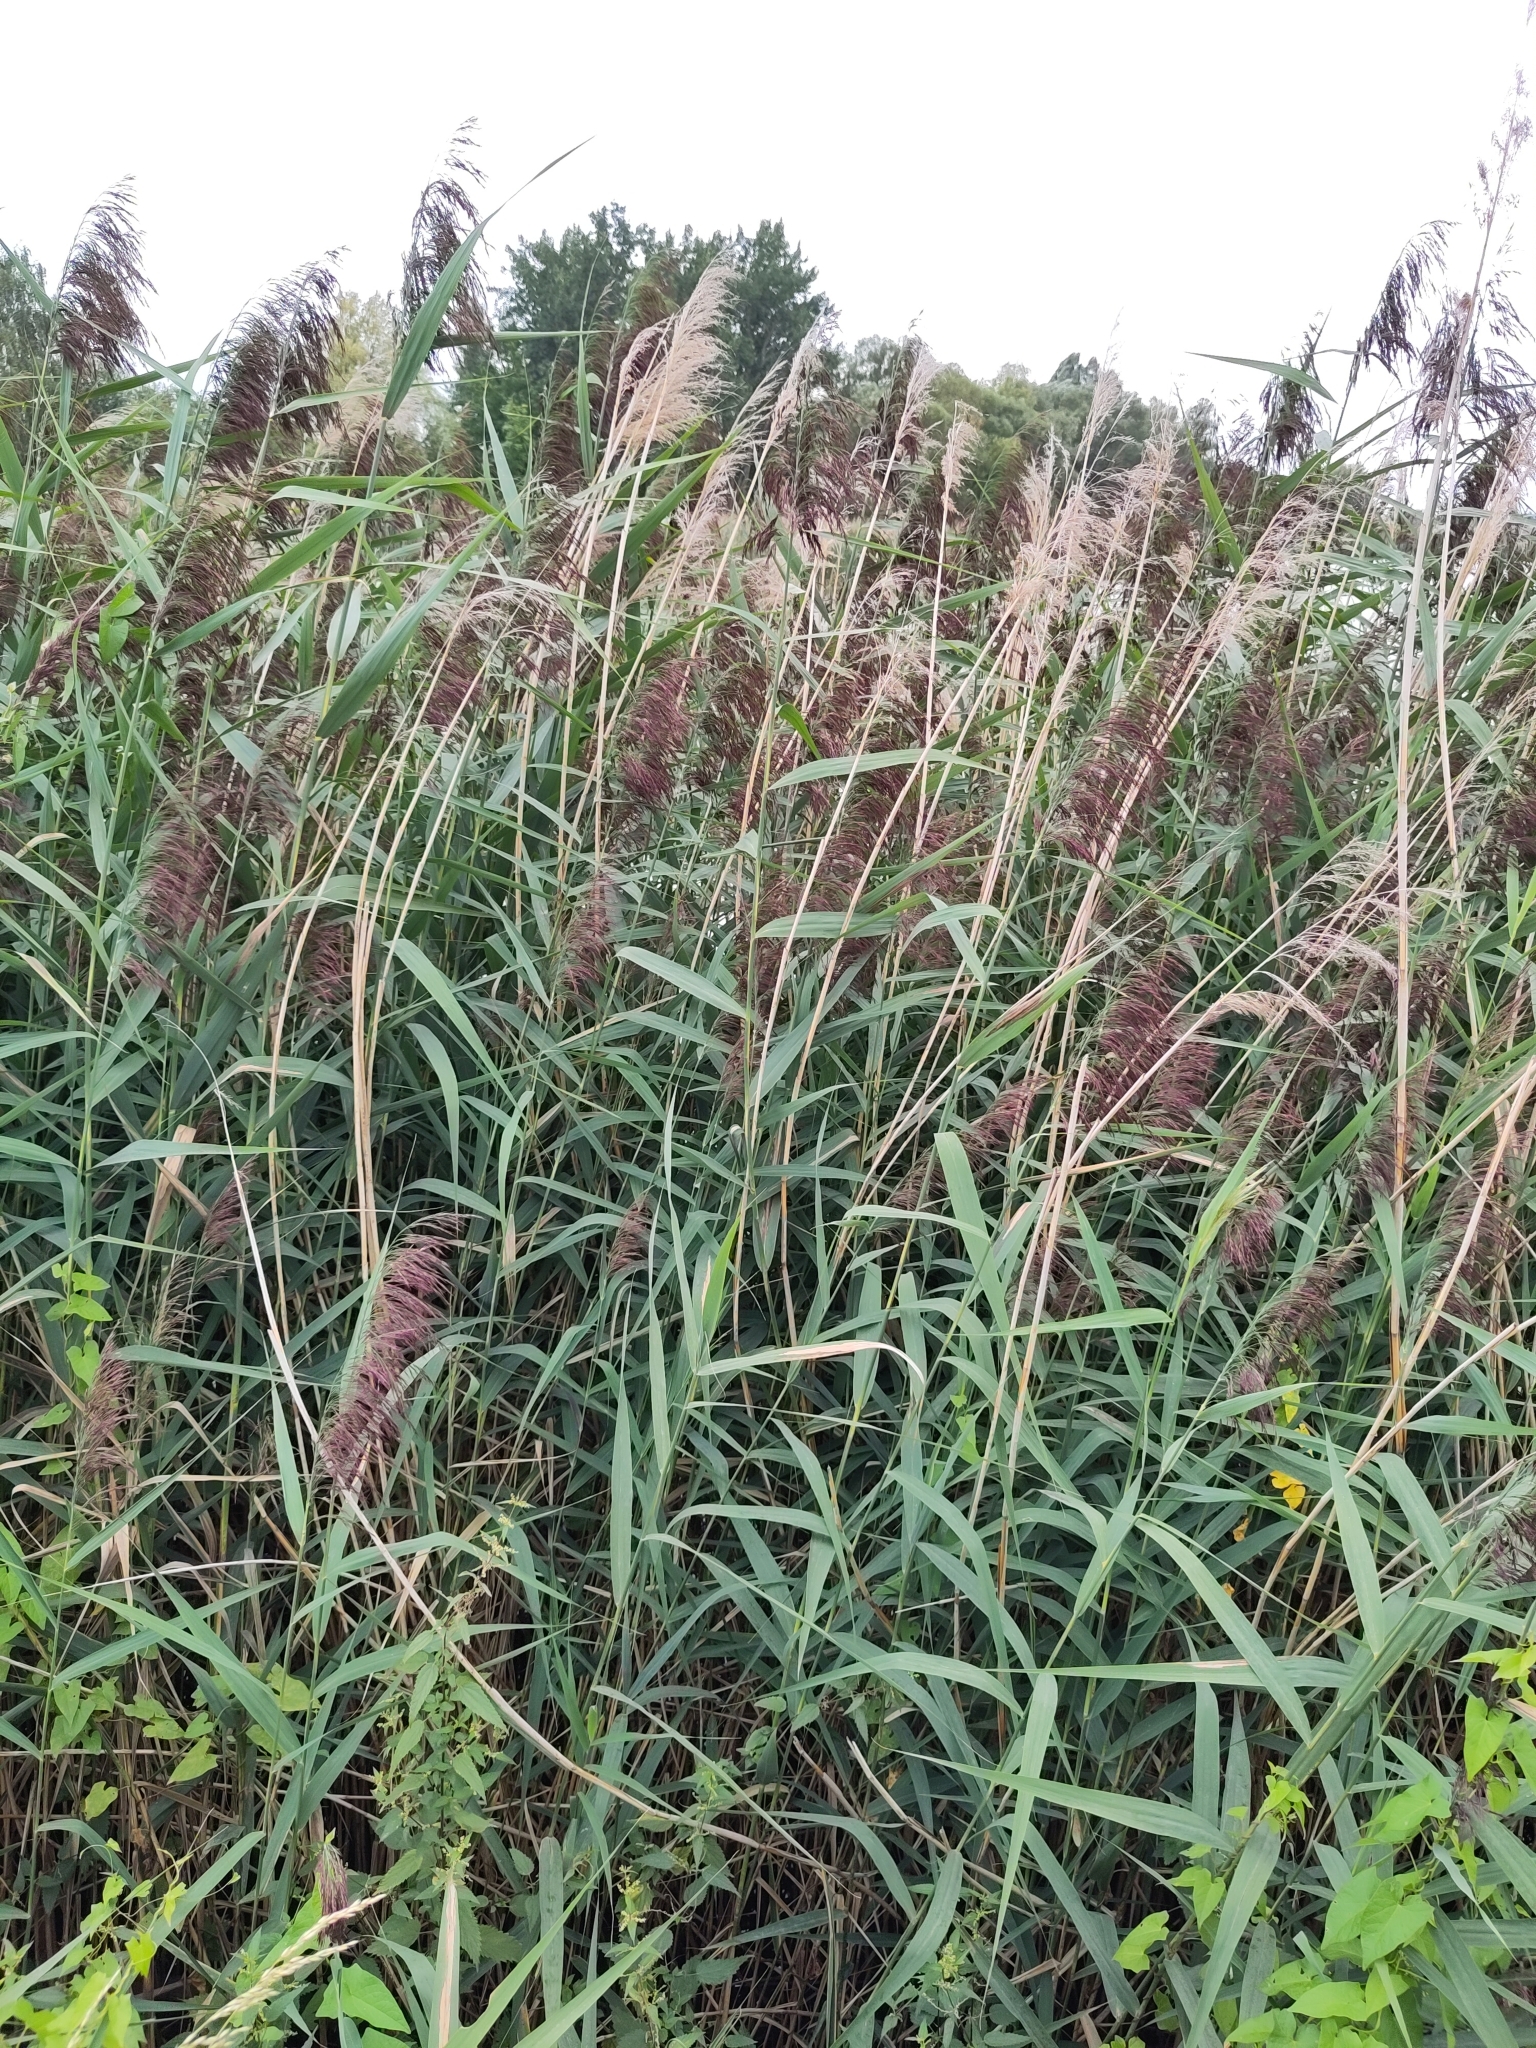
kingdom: Plantae
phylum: Tracheophyta
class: Liliopsida
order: Poales
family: Poaceae
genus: Phragmites
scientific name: Phragmites australis
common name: Common reed
